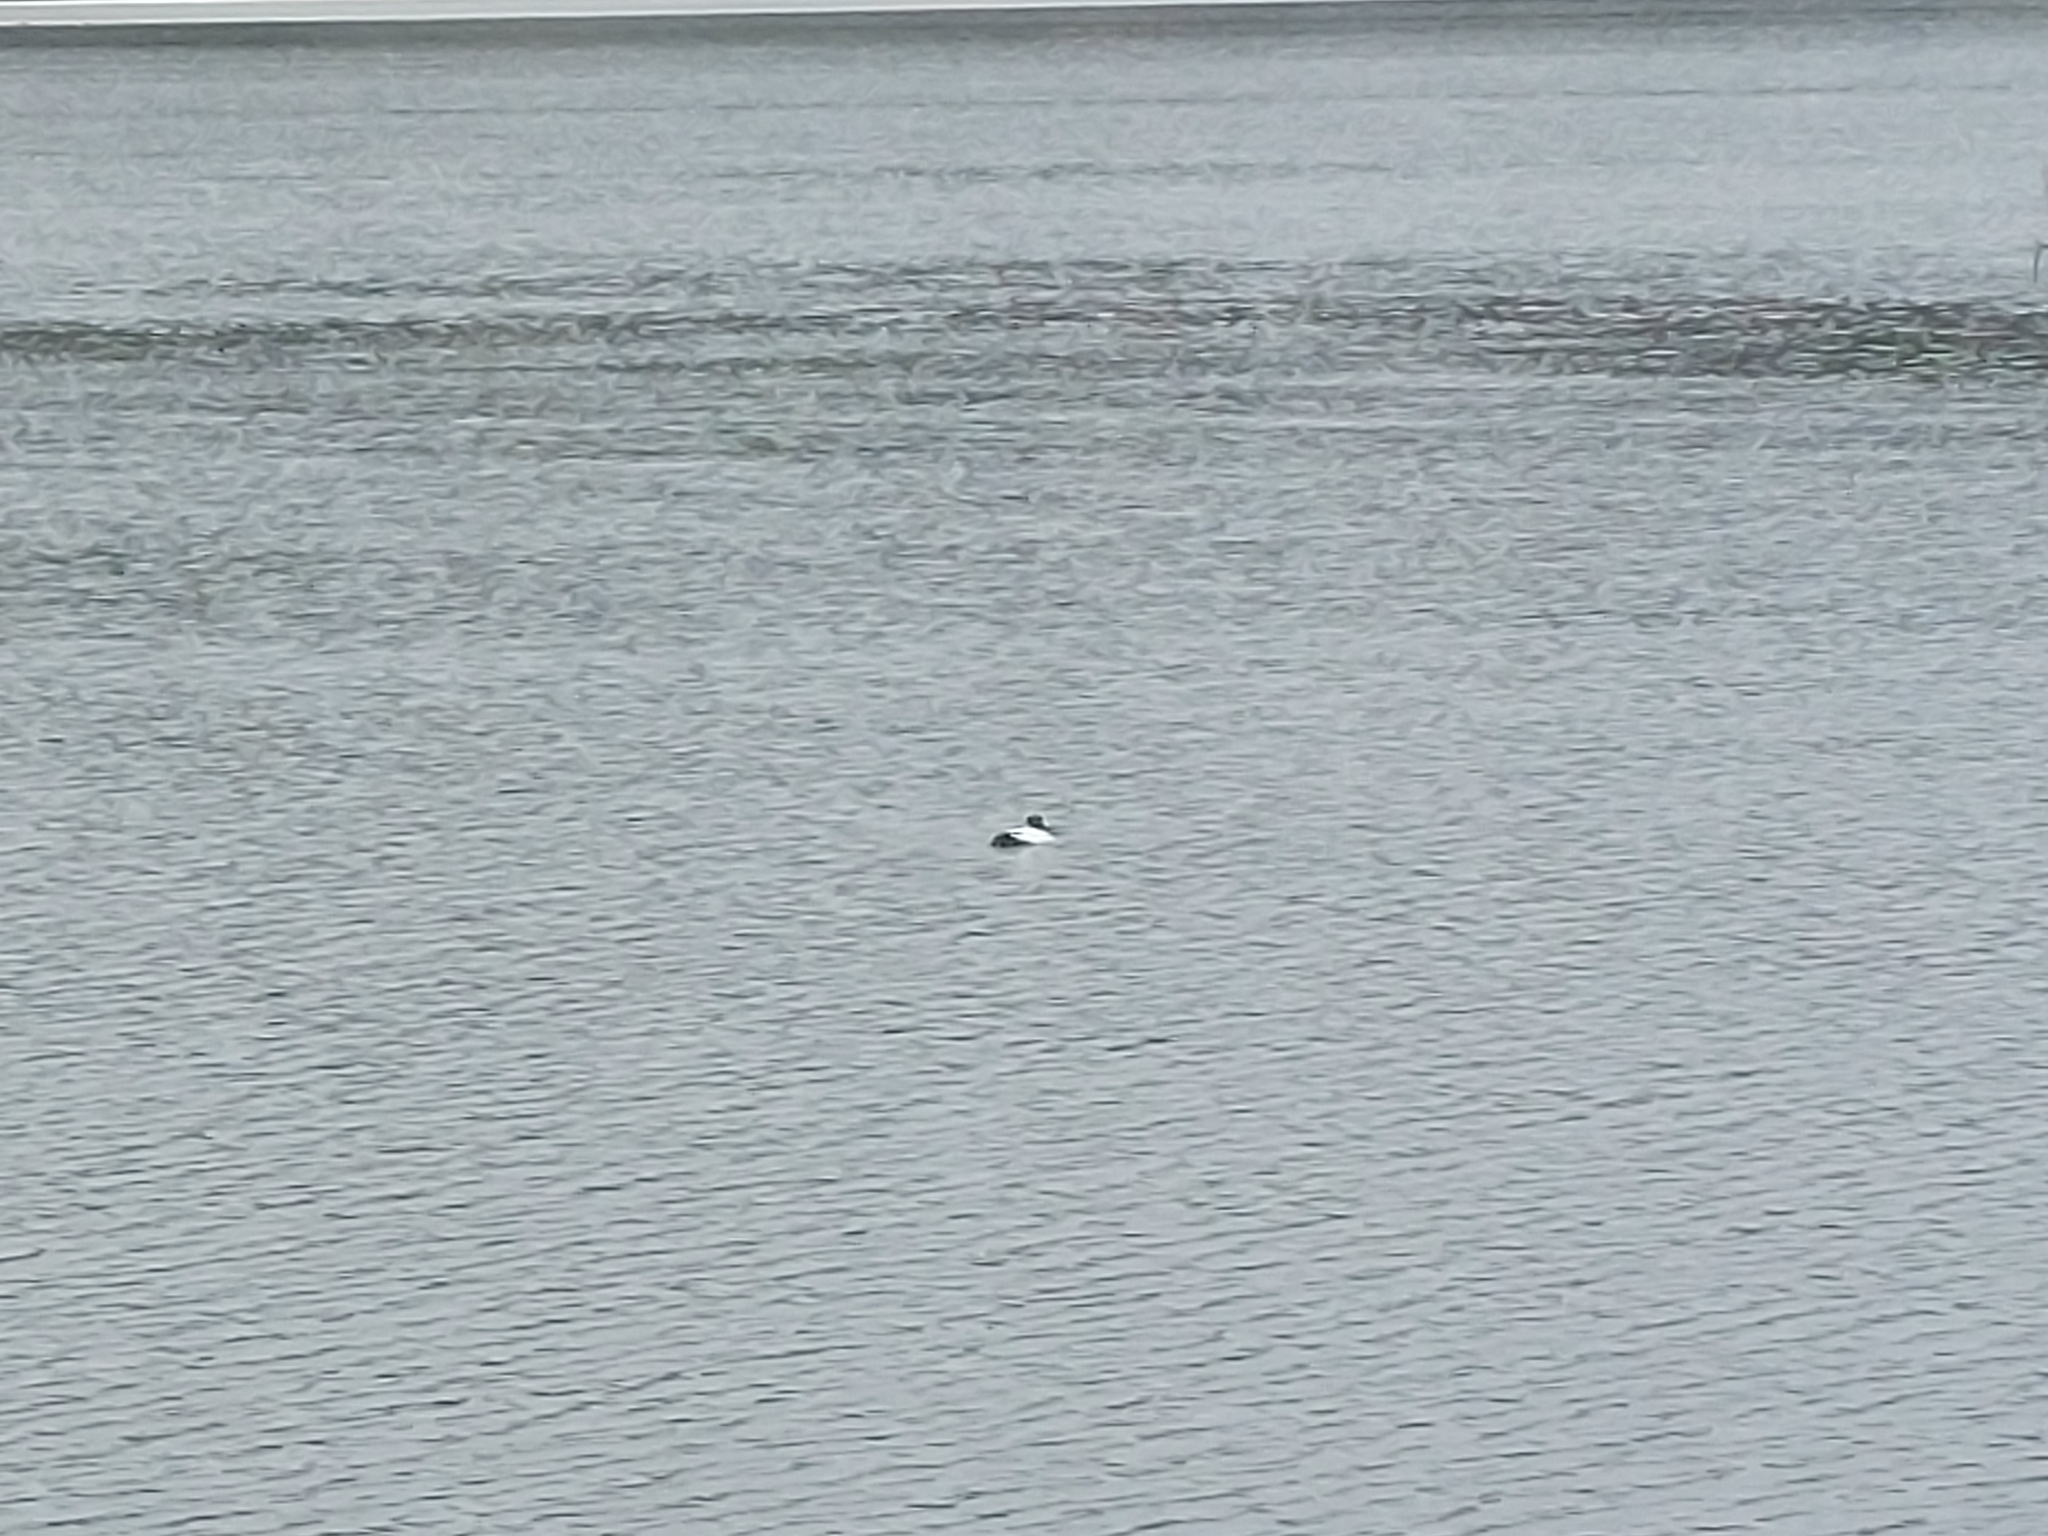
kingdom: Animalia
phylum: Chordata
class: Aves
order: Anseriformes
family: Anatidae
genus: Bucephala
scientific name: Bucephala clangula
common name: Common goldeneye
